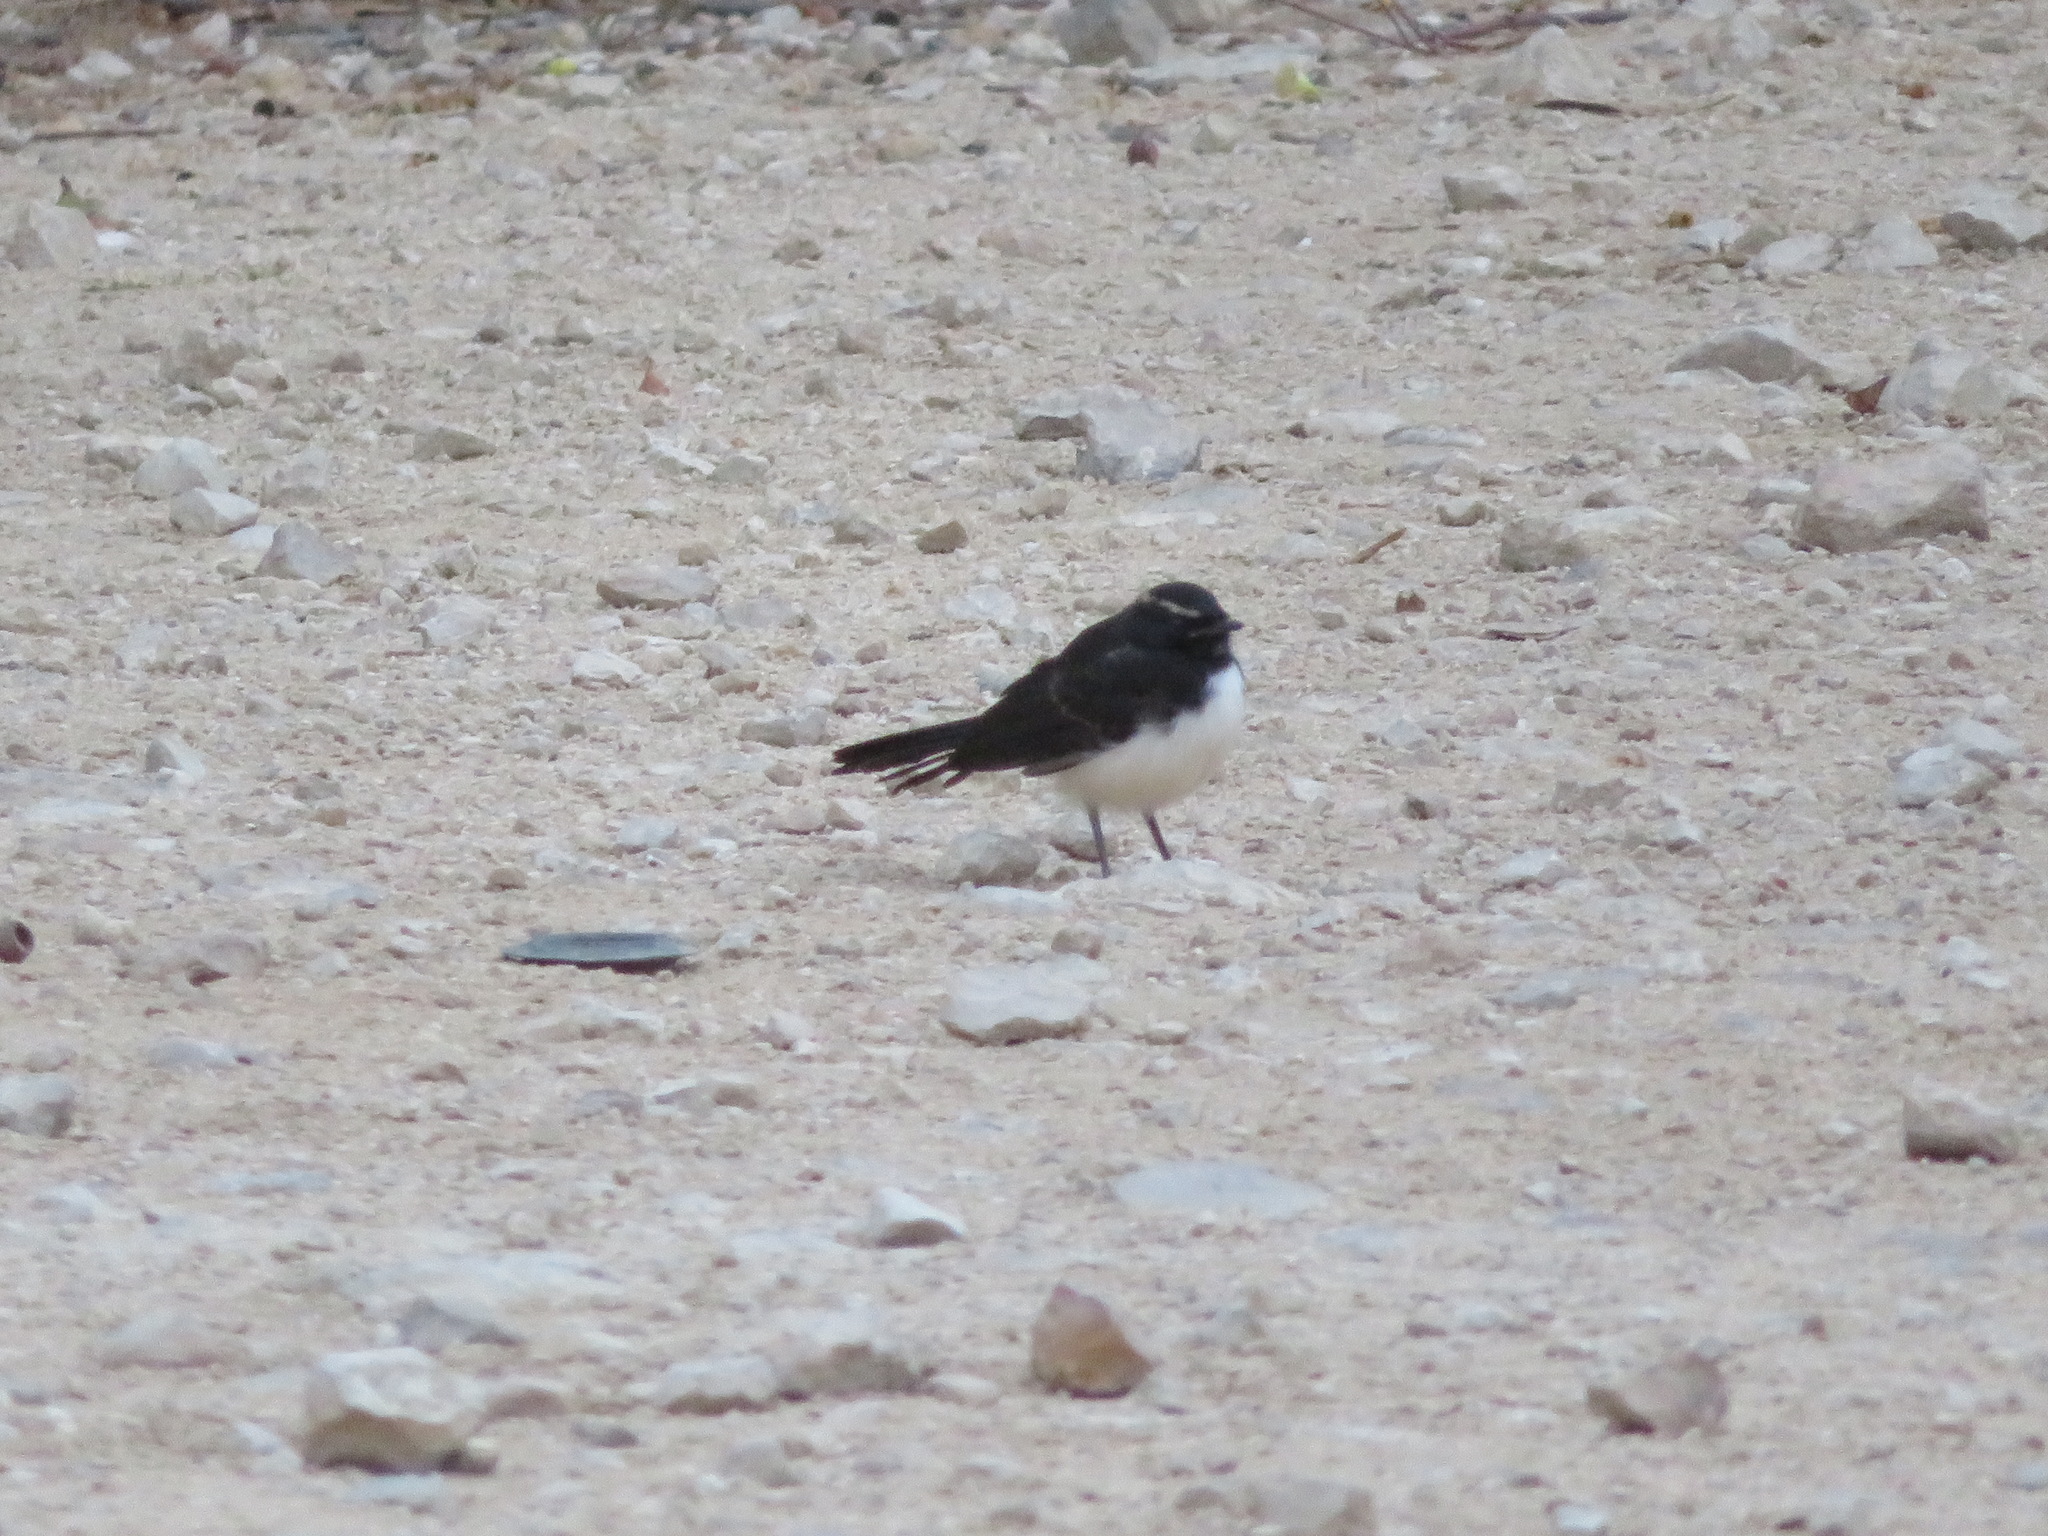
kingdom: Animalia
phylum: Chordata
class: Aves
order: Passeriformes
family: Rhipiduridae
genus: Rhipidura
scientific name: Rhipidura leucophrys
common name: Willie wagtail
